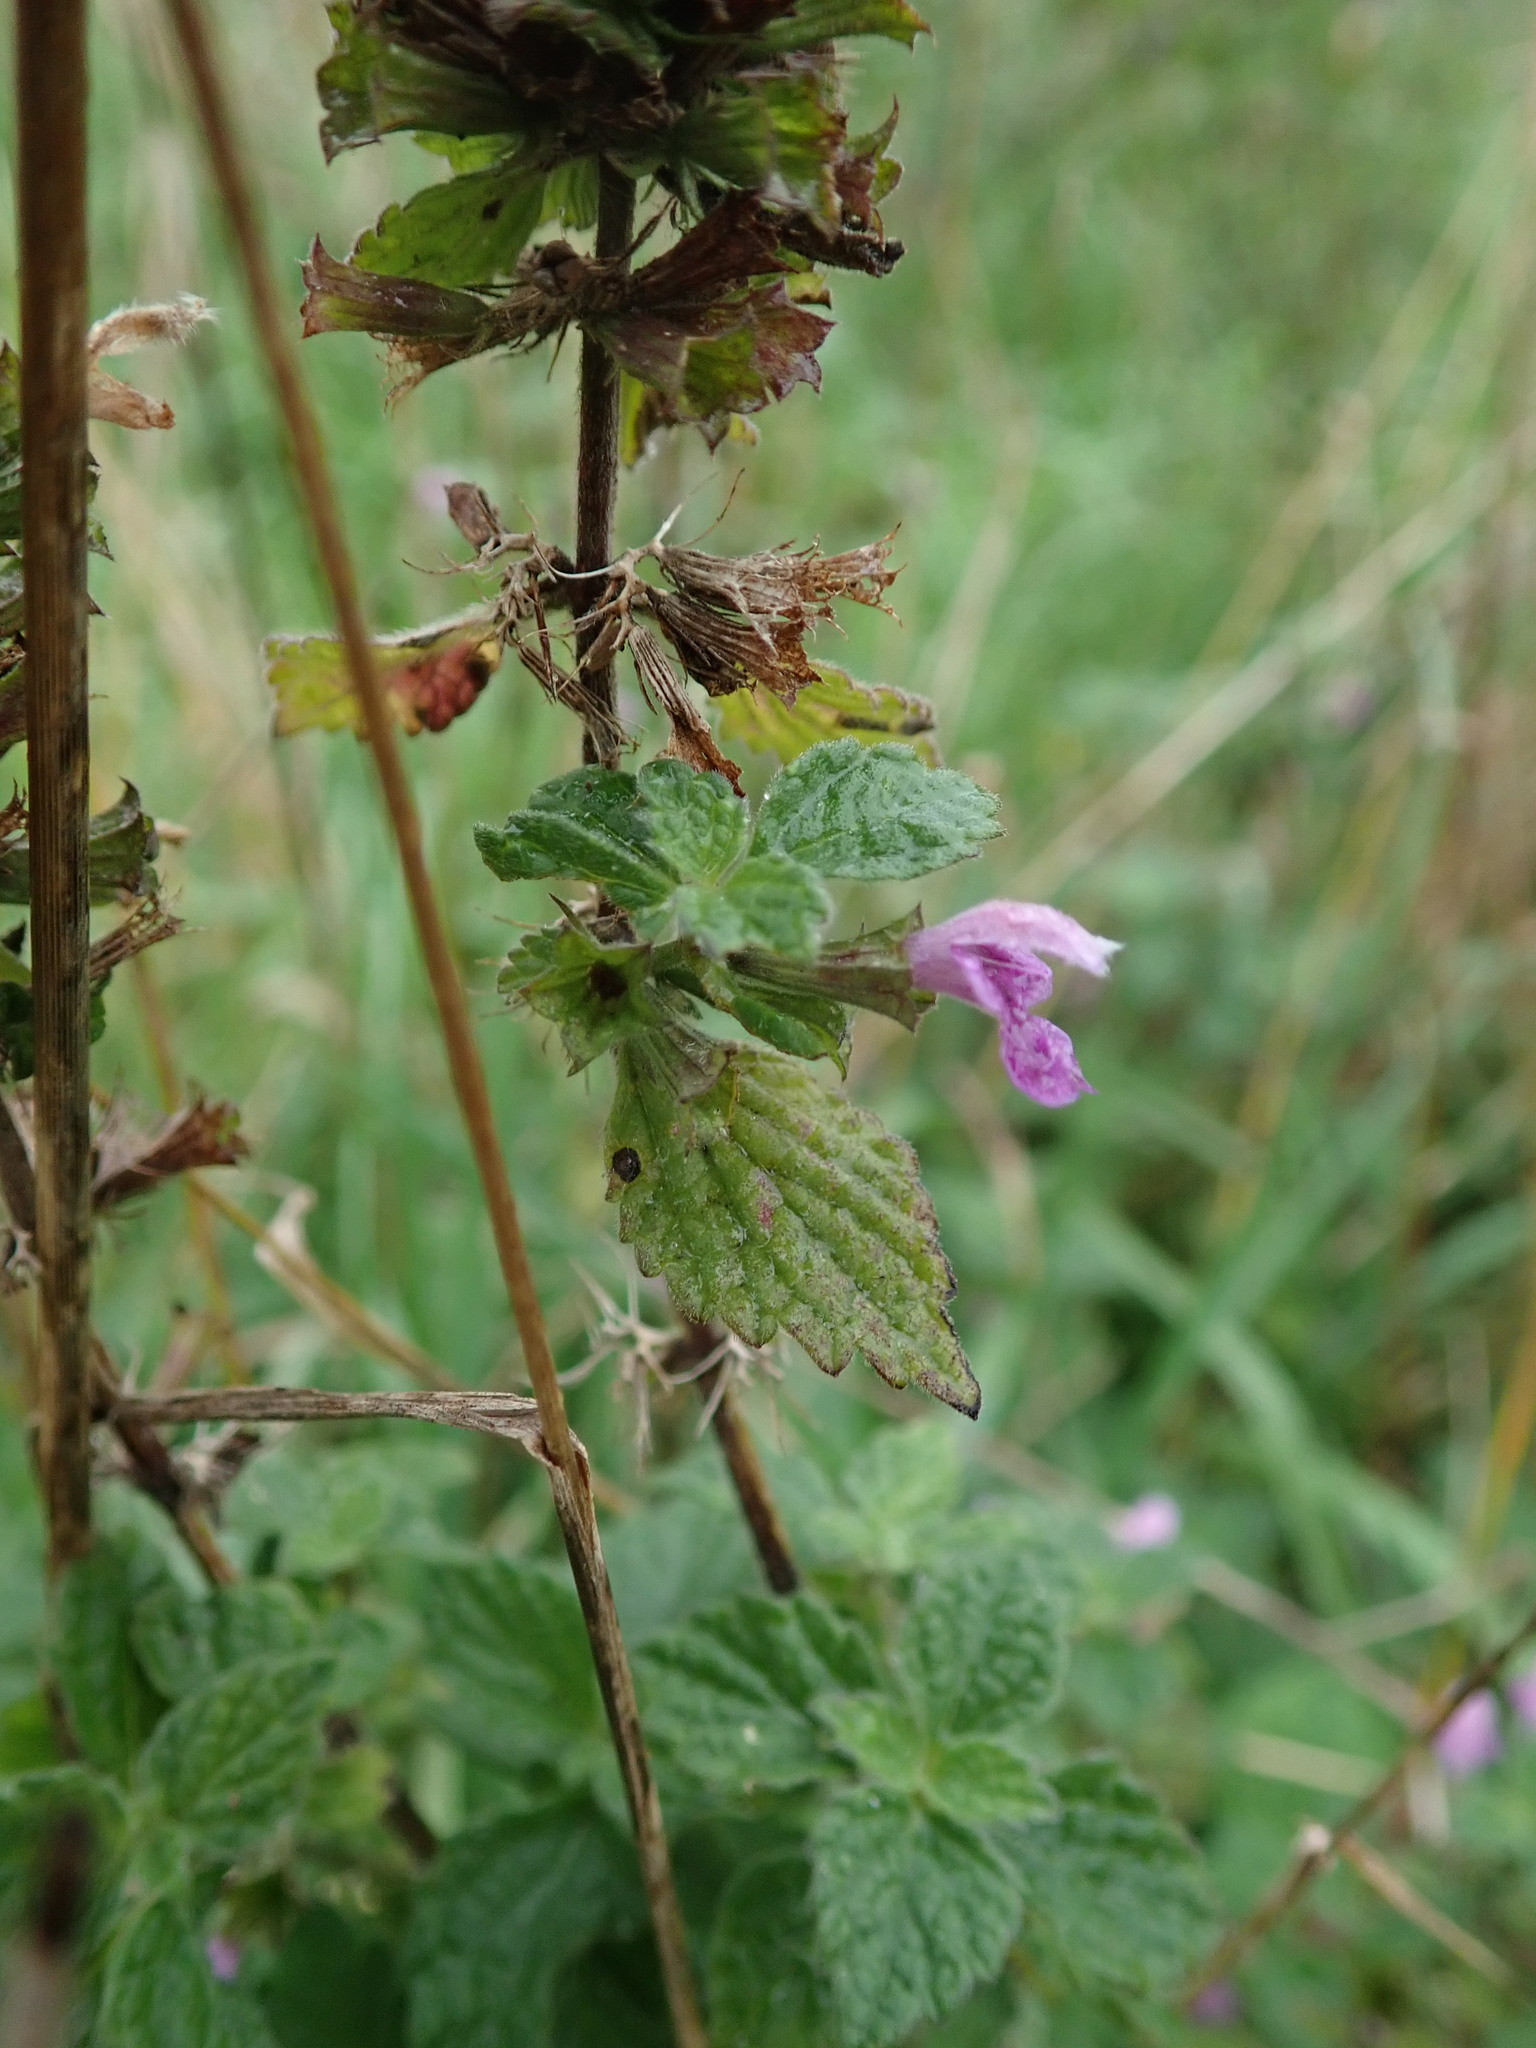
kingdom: Plantae
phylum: Tracheophyta
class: Magnoliopsida
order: Lamiales
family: Lamiaceae
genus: Ballota
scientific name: Ballota nigra
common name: Black horehound
